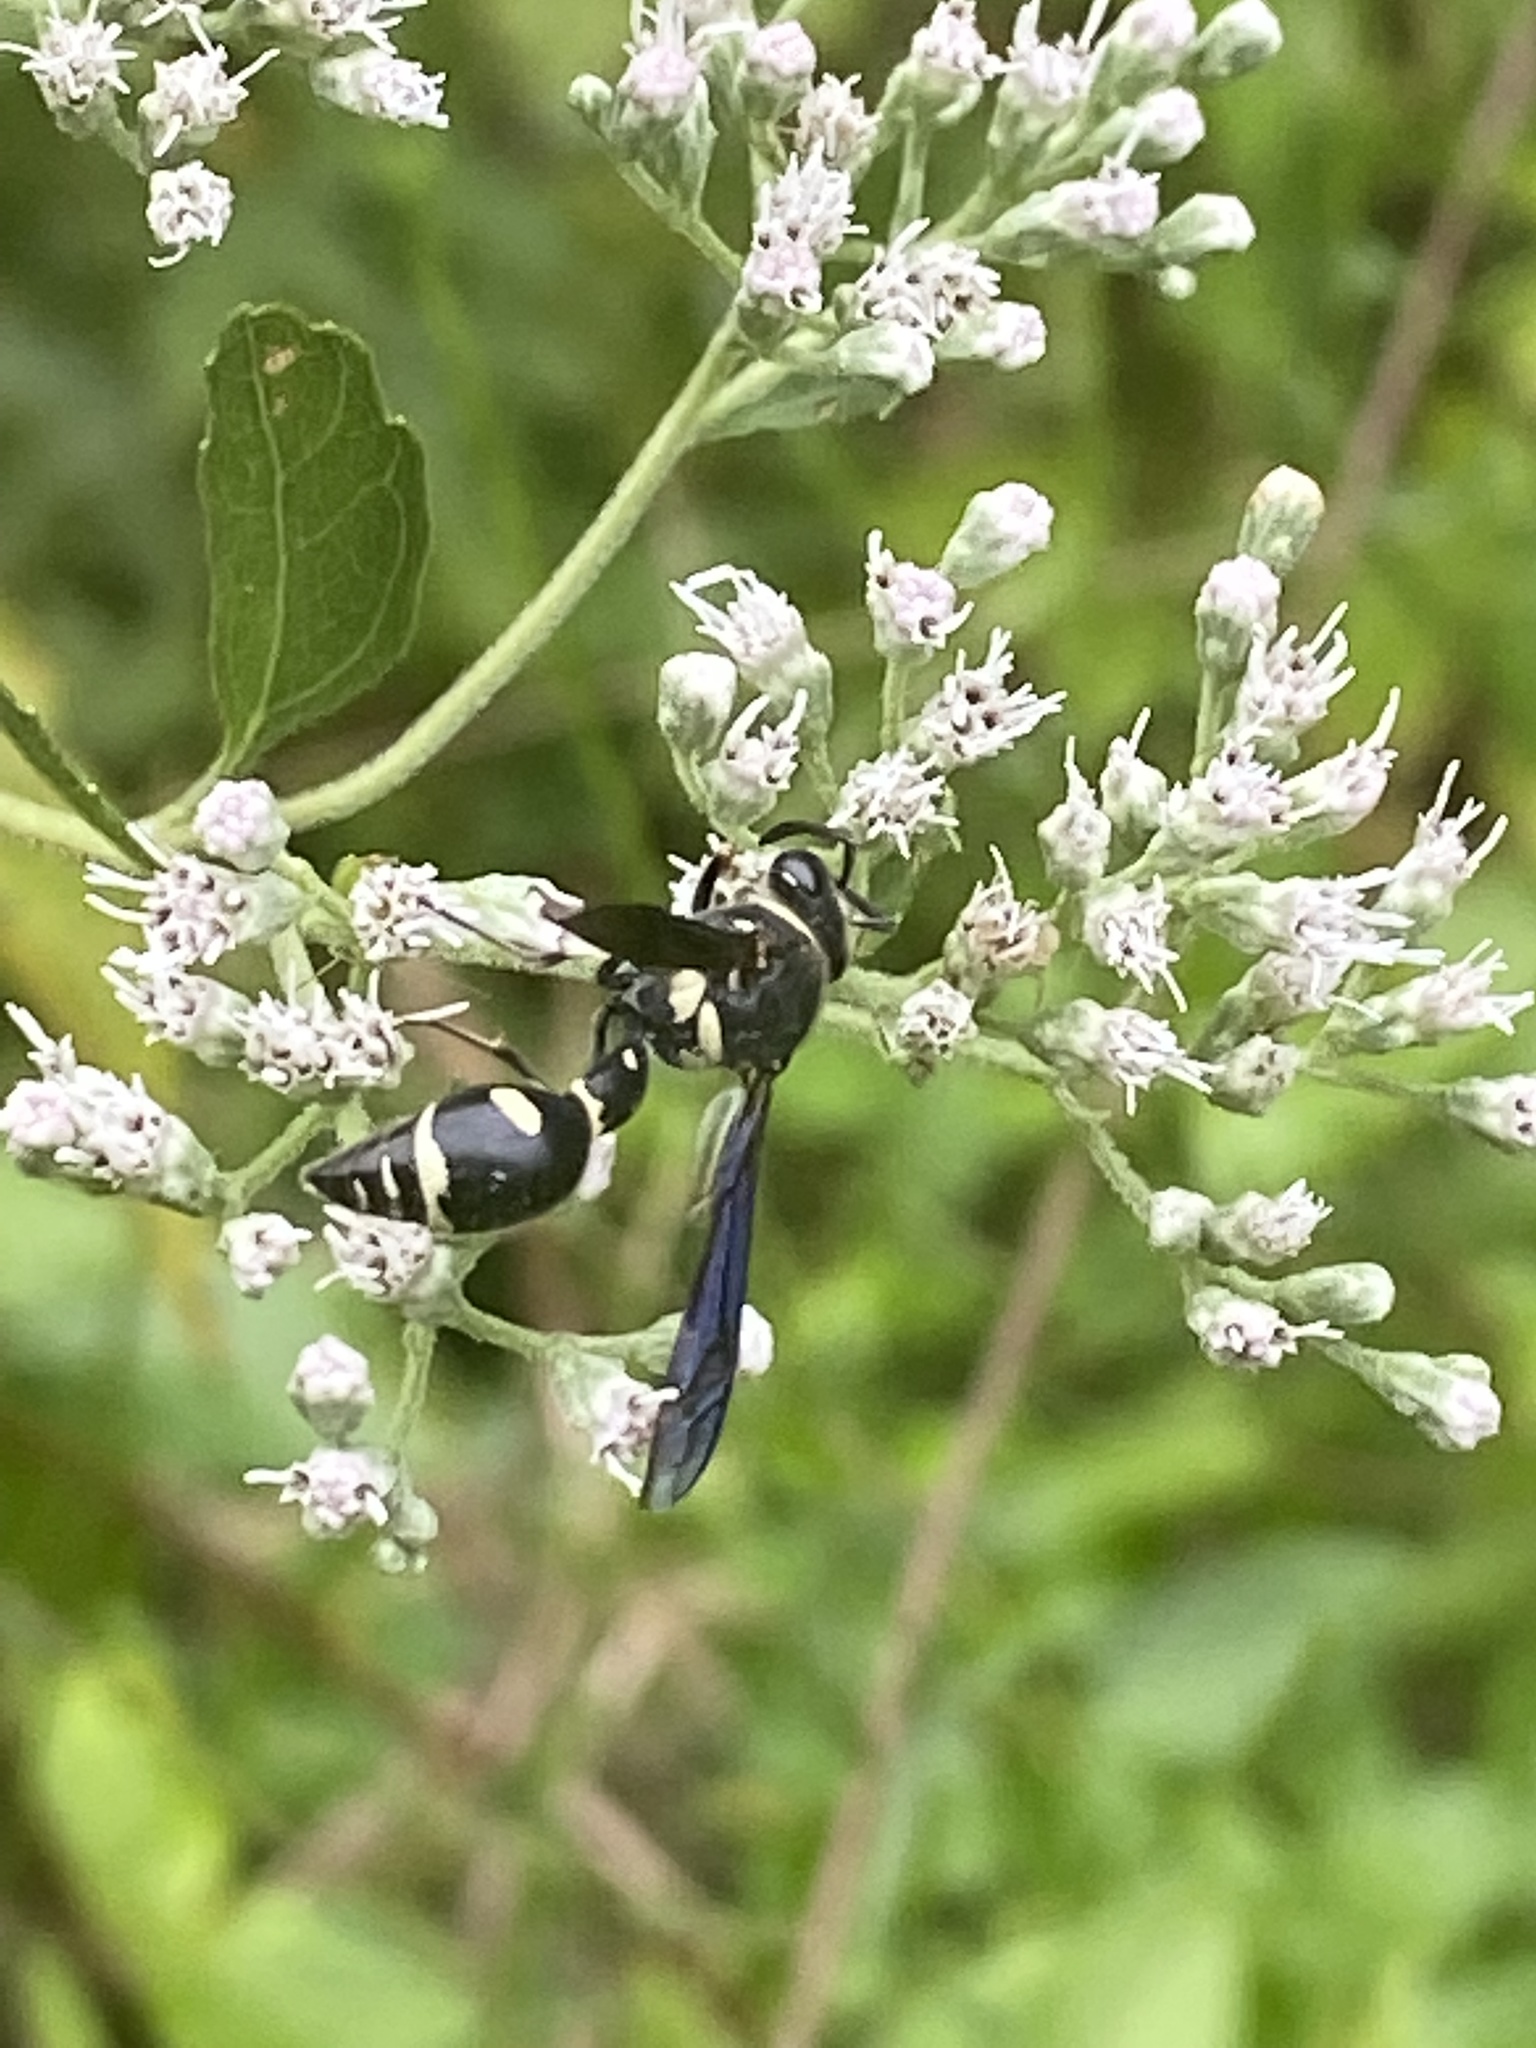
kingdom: Animalia
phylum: Arthropoda
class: Insecta
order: Hymenoptera
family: Vespidae
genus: Eumenes
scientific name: Eumenes fraternus
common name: Fraternal potter wasp
